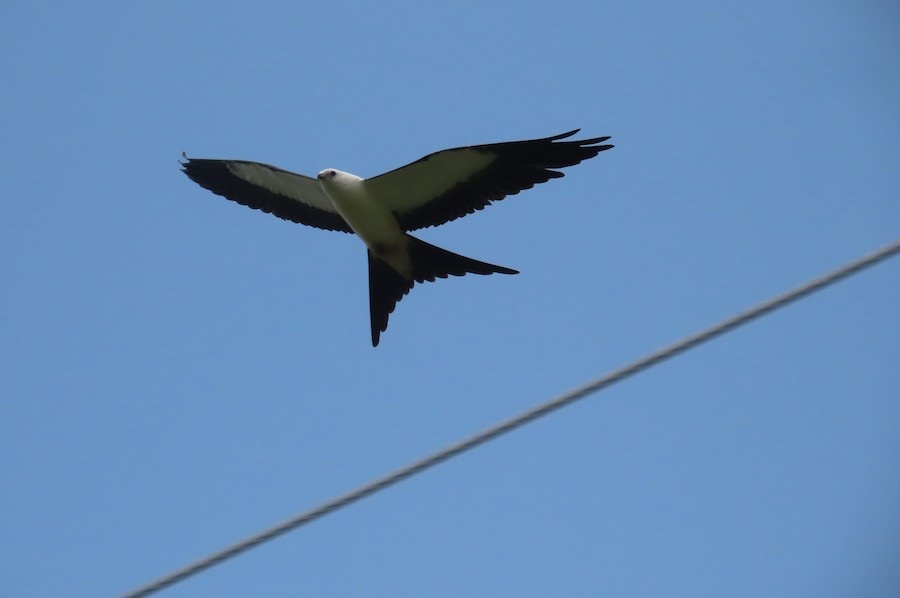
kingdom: Animalia
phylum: Chordata
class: Aves
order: Accipitriformes
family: Accipitridae
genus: Elanoides
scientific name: Elanoides forficatus
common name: Swallow-tailed kite
